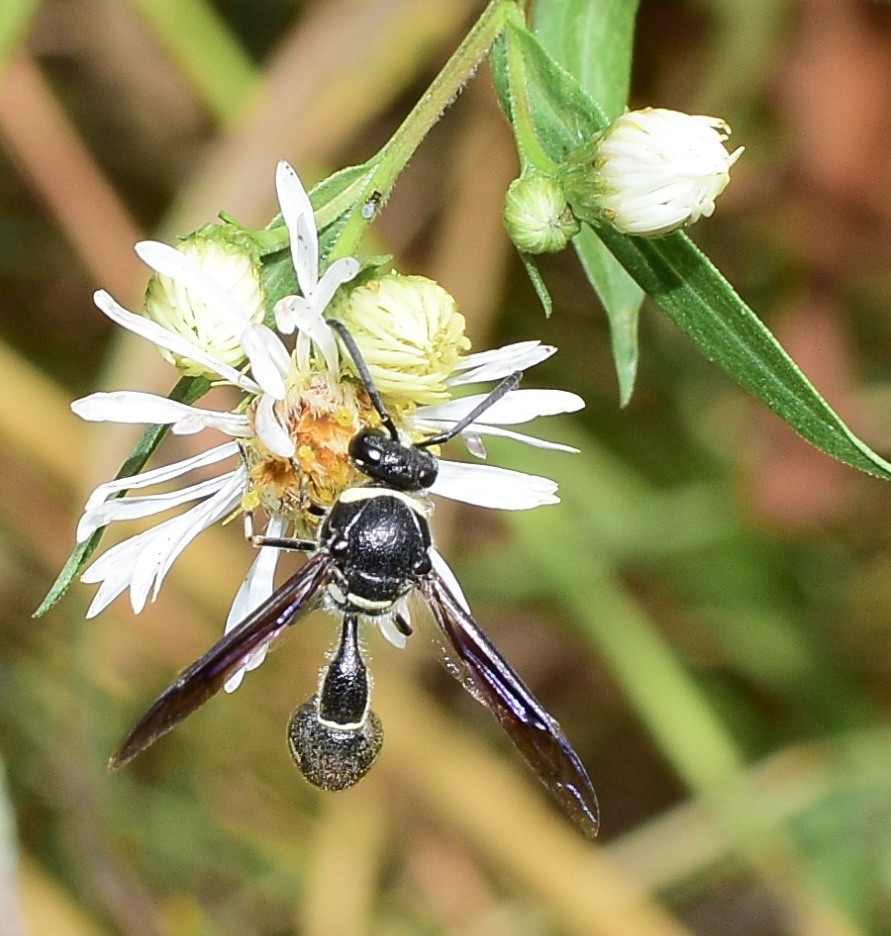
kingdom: Animalia
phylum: Arthropoda
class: Insecta
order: Hymenoptera
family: Vespidae
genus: Eumenes
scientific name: Eumenes fraternus
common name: Fraternal potter wasp
